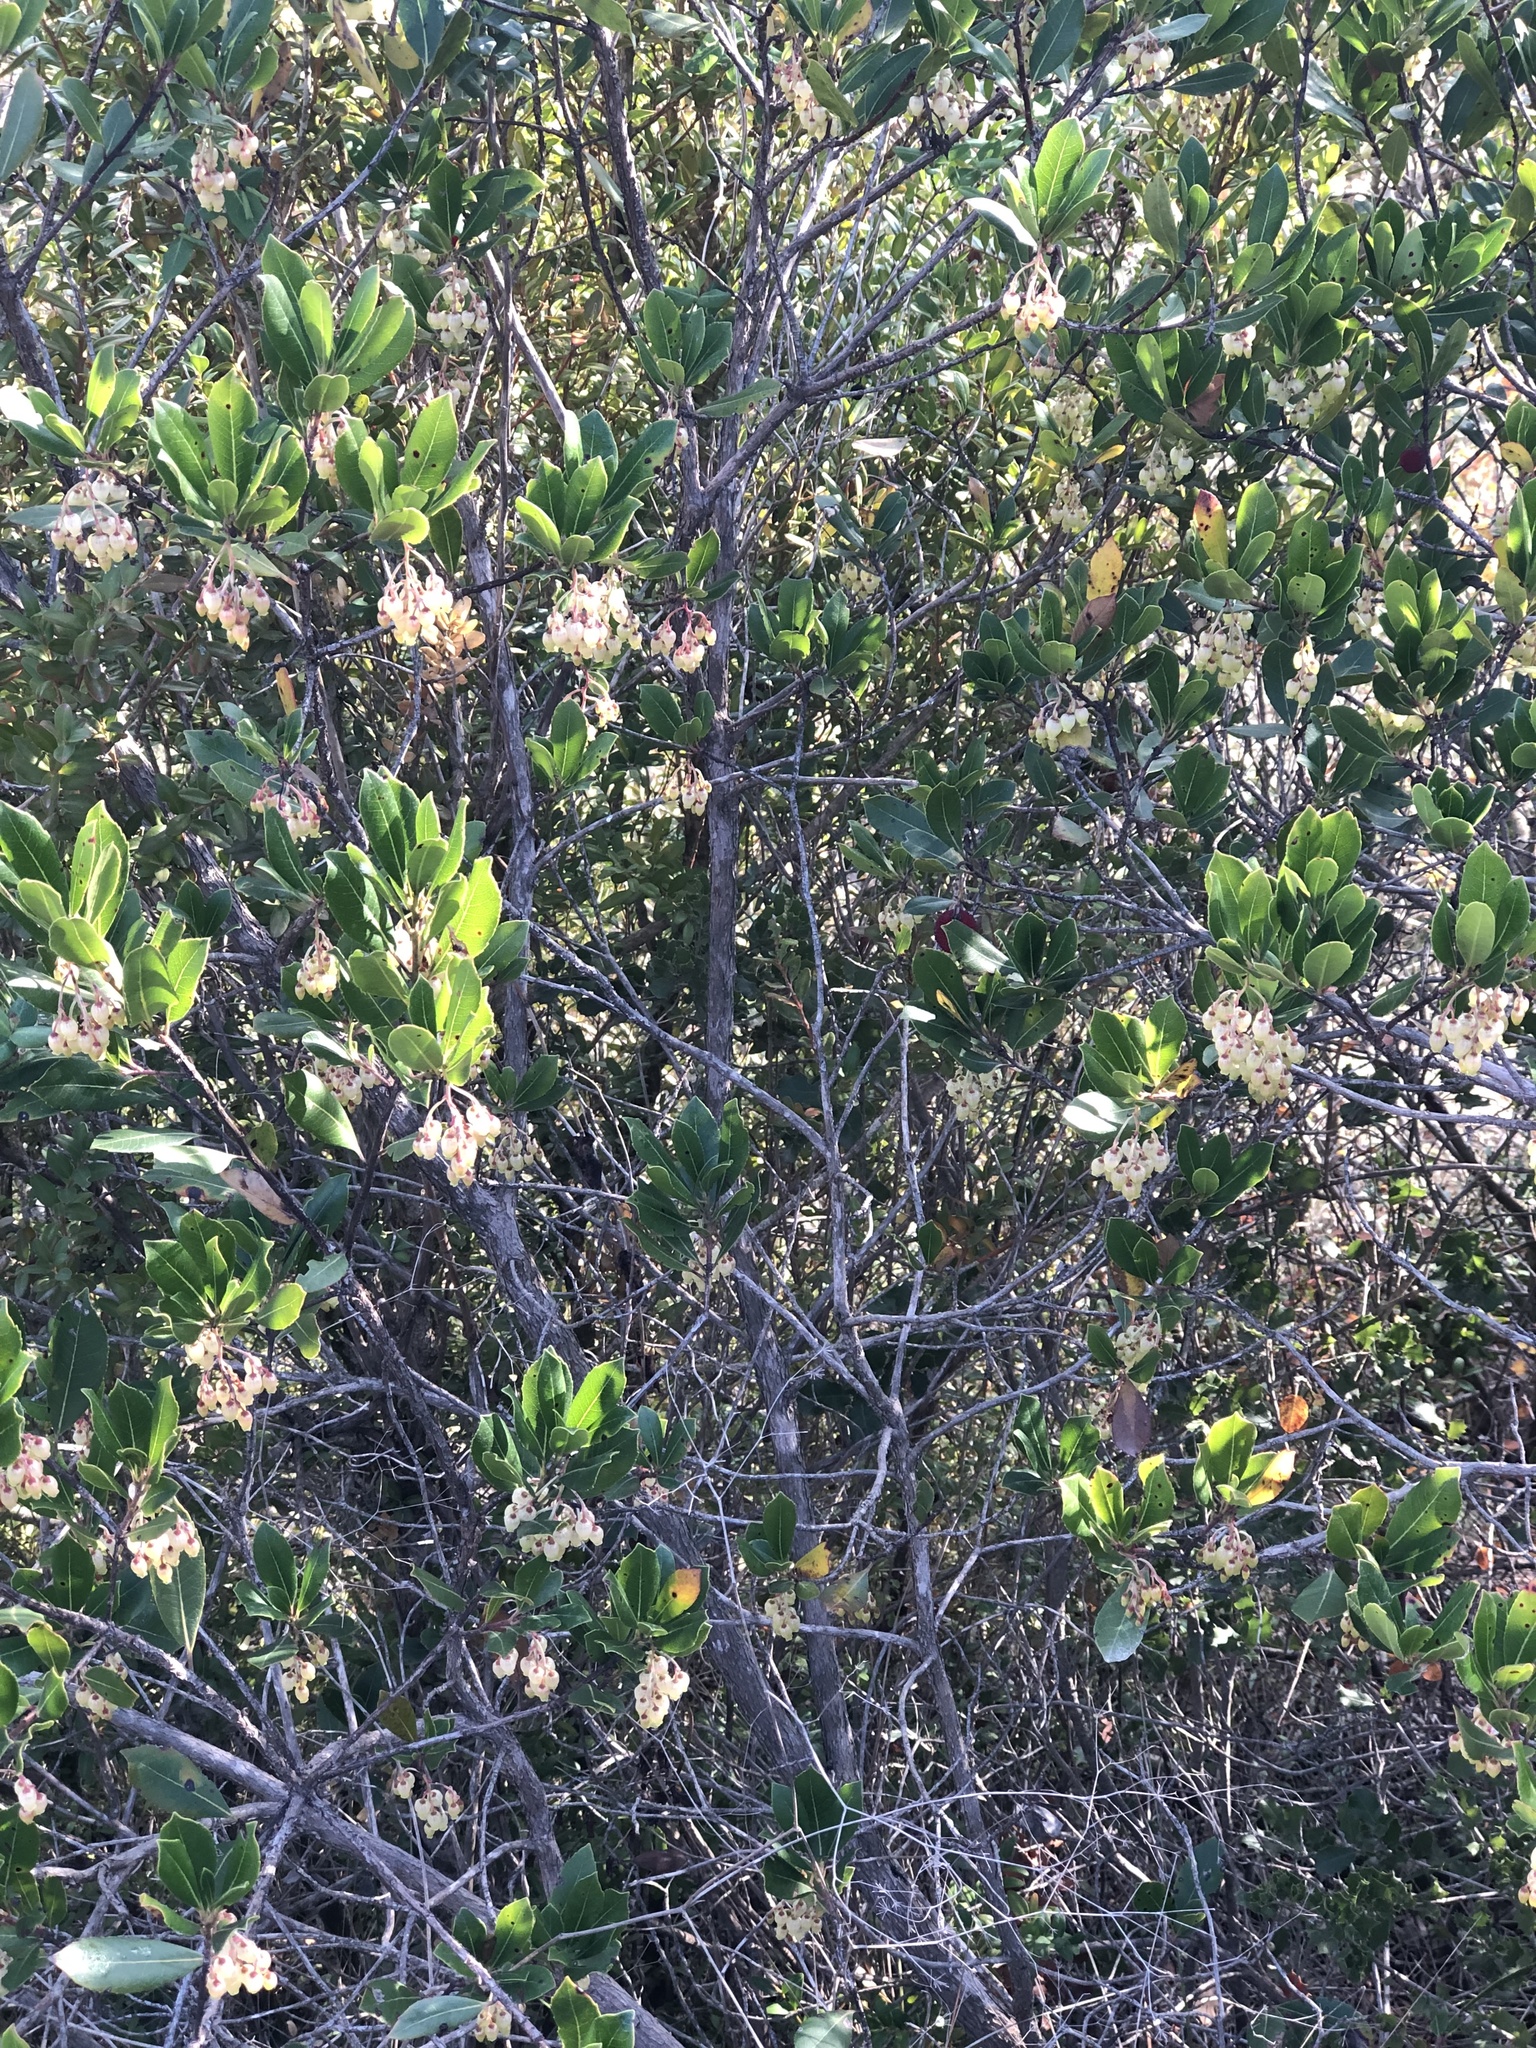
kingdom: Plantae
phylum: Tracheophyta
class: Magnoliopsida
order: Ericales
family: Ericaceae
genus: Arbutus
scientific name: Arbutus unedo
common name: Strawberry-tree
